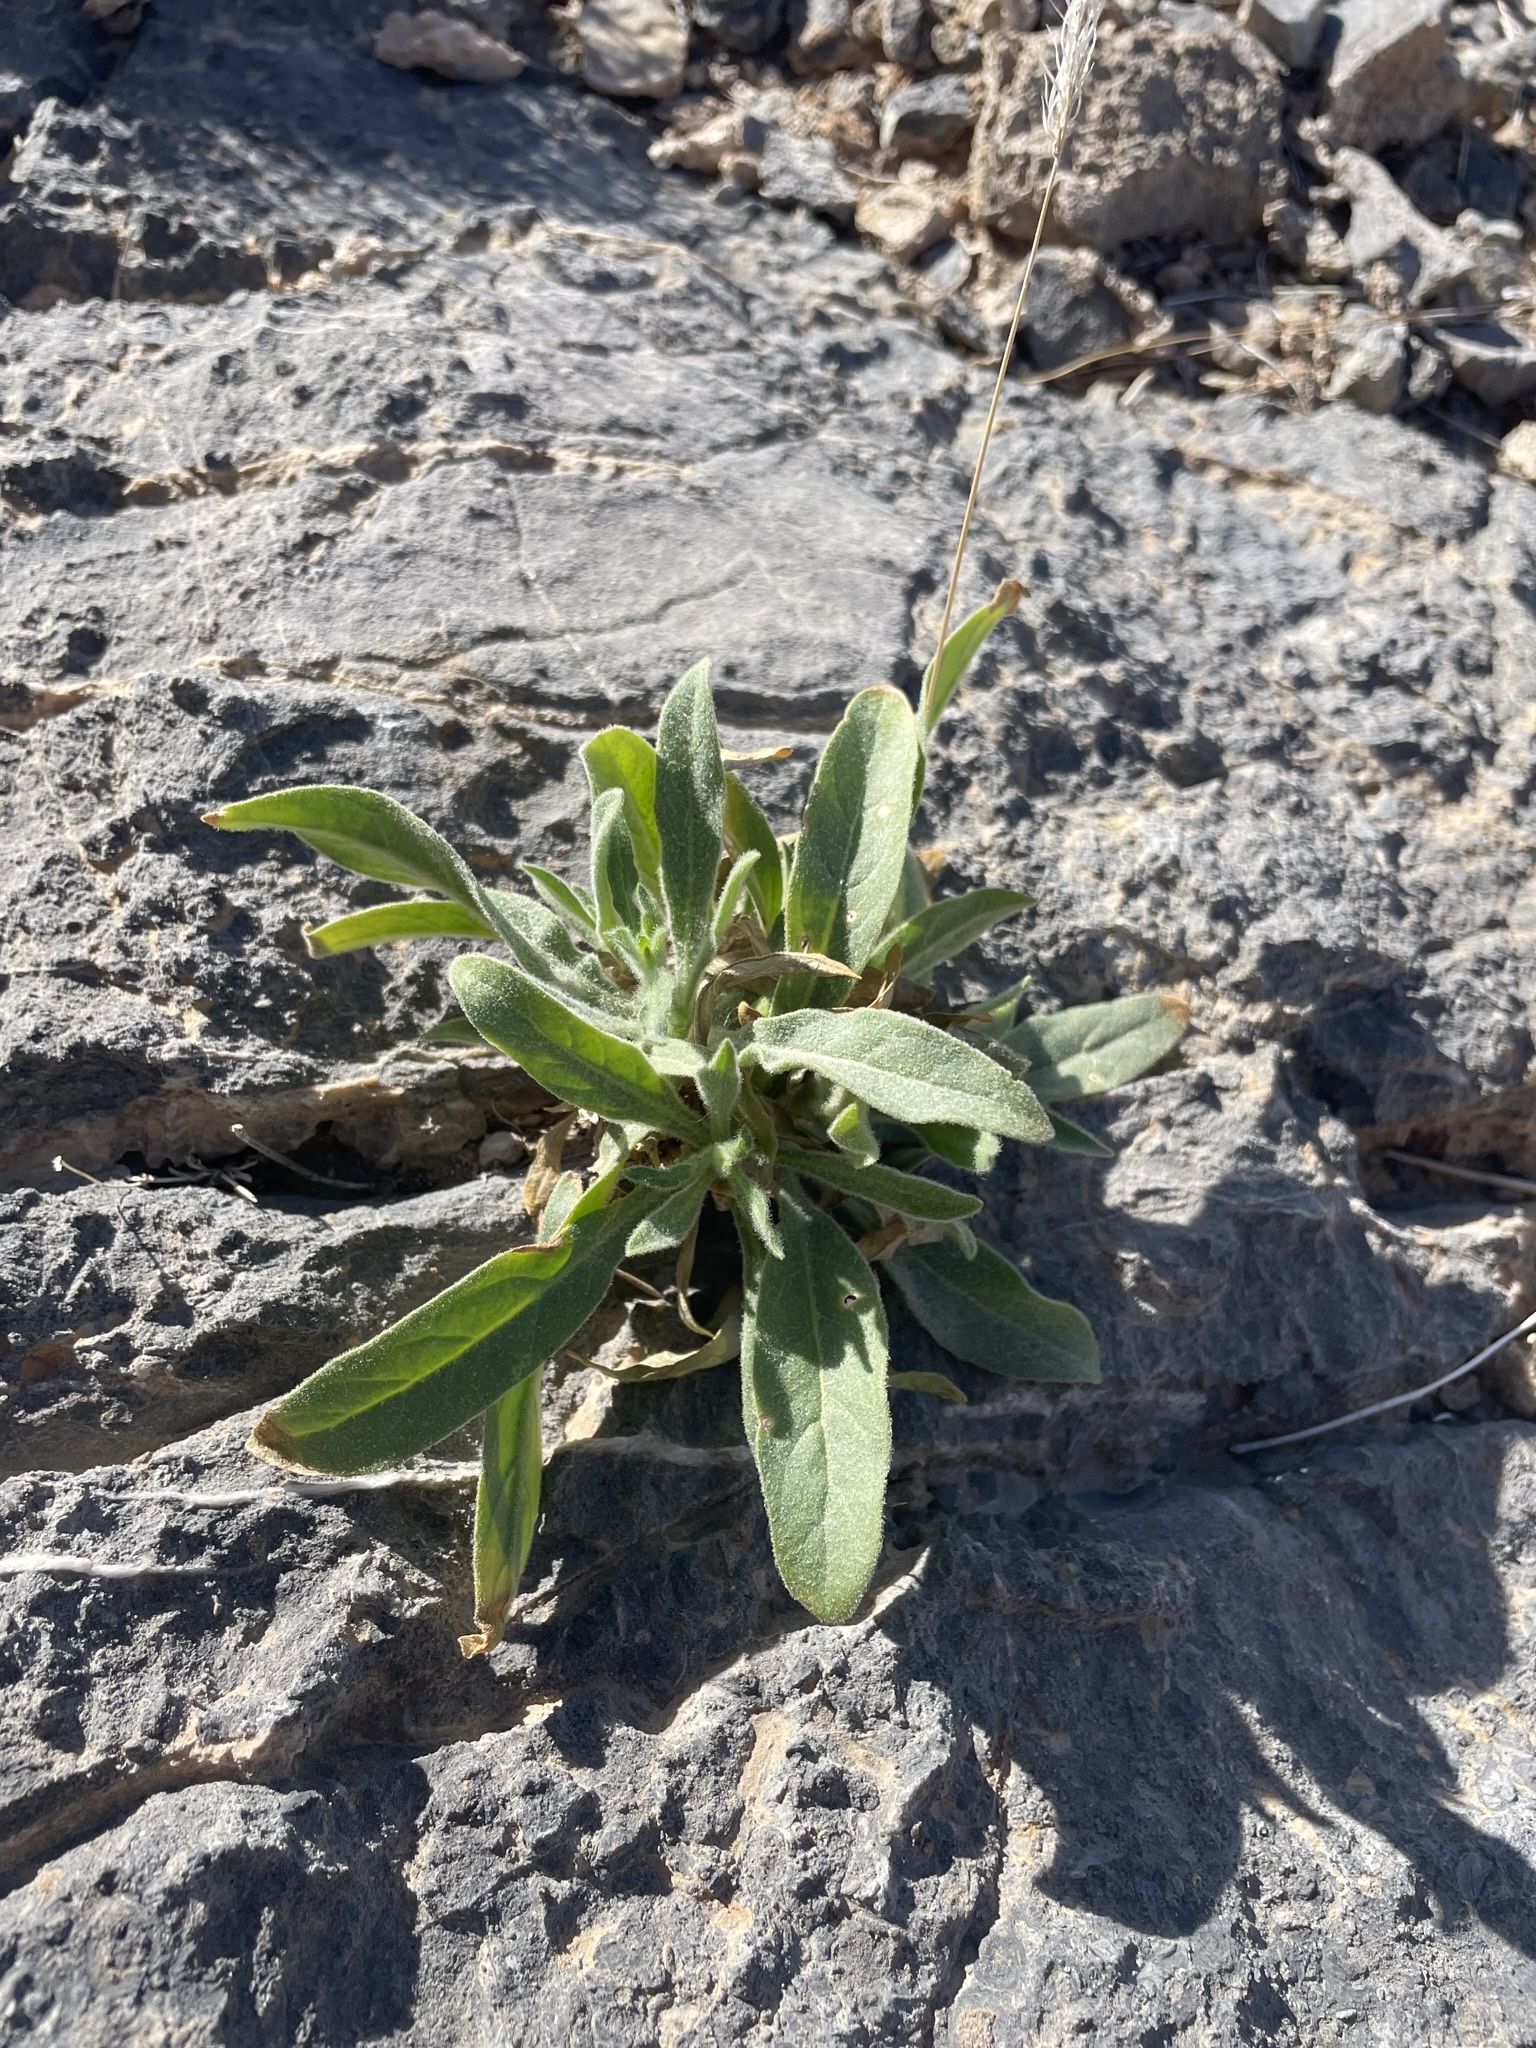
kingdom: Plantae
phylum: Tracheophyta
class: Magnoliopsida
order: Solanales
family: Solanaceae
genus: Nicotiana
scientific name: Nicotiana obtusifolia
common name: Desert tobacco
